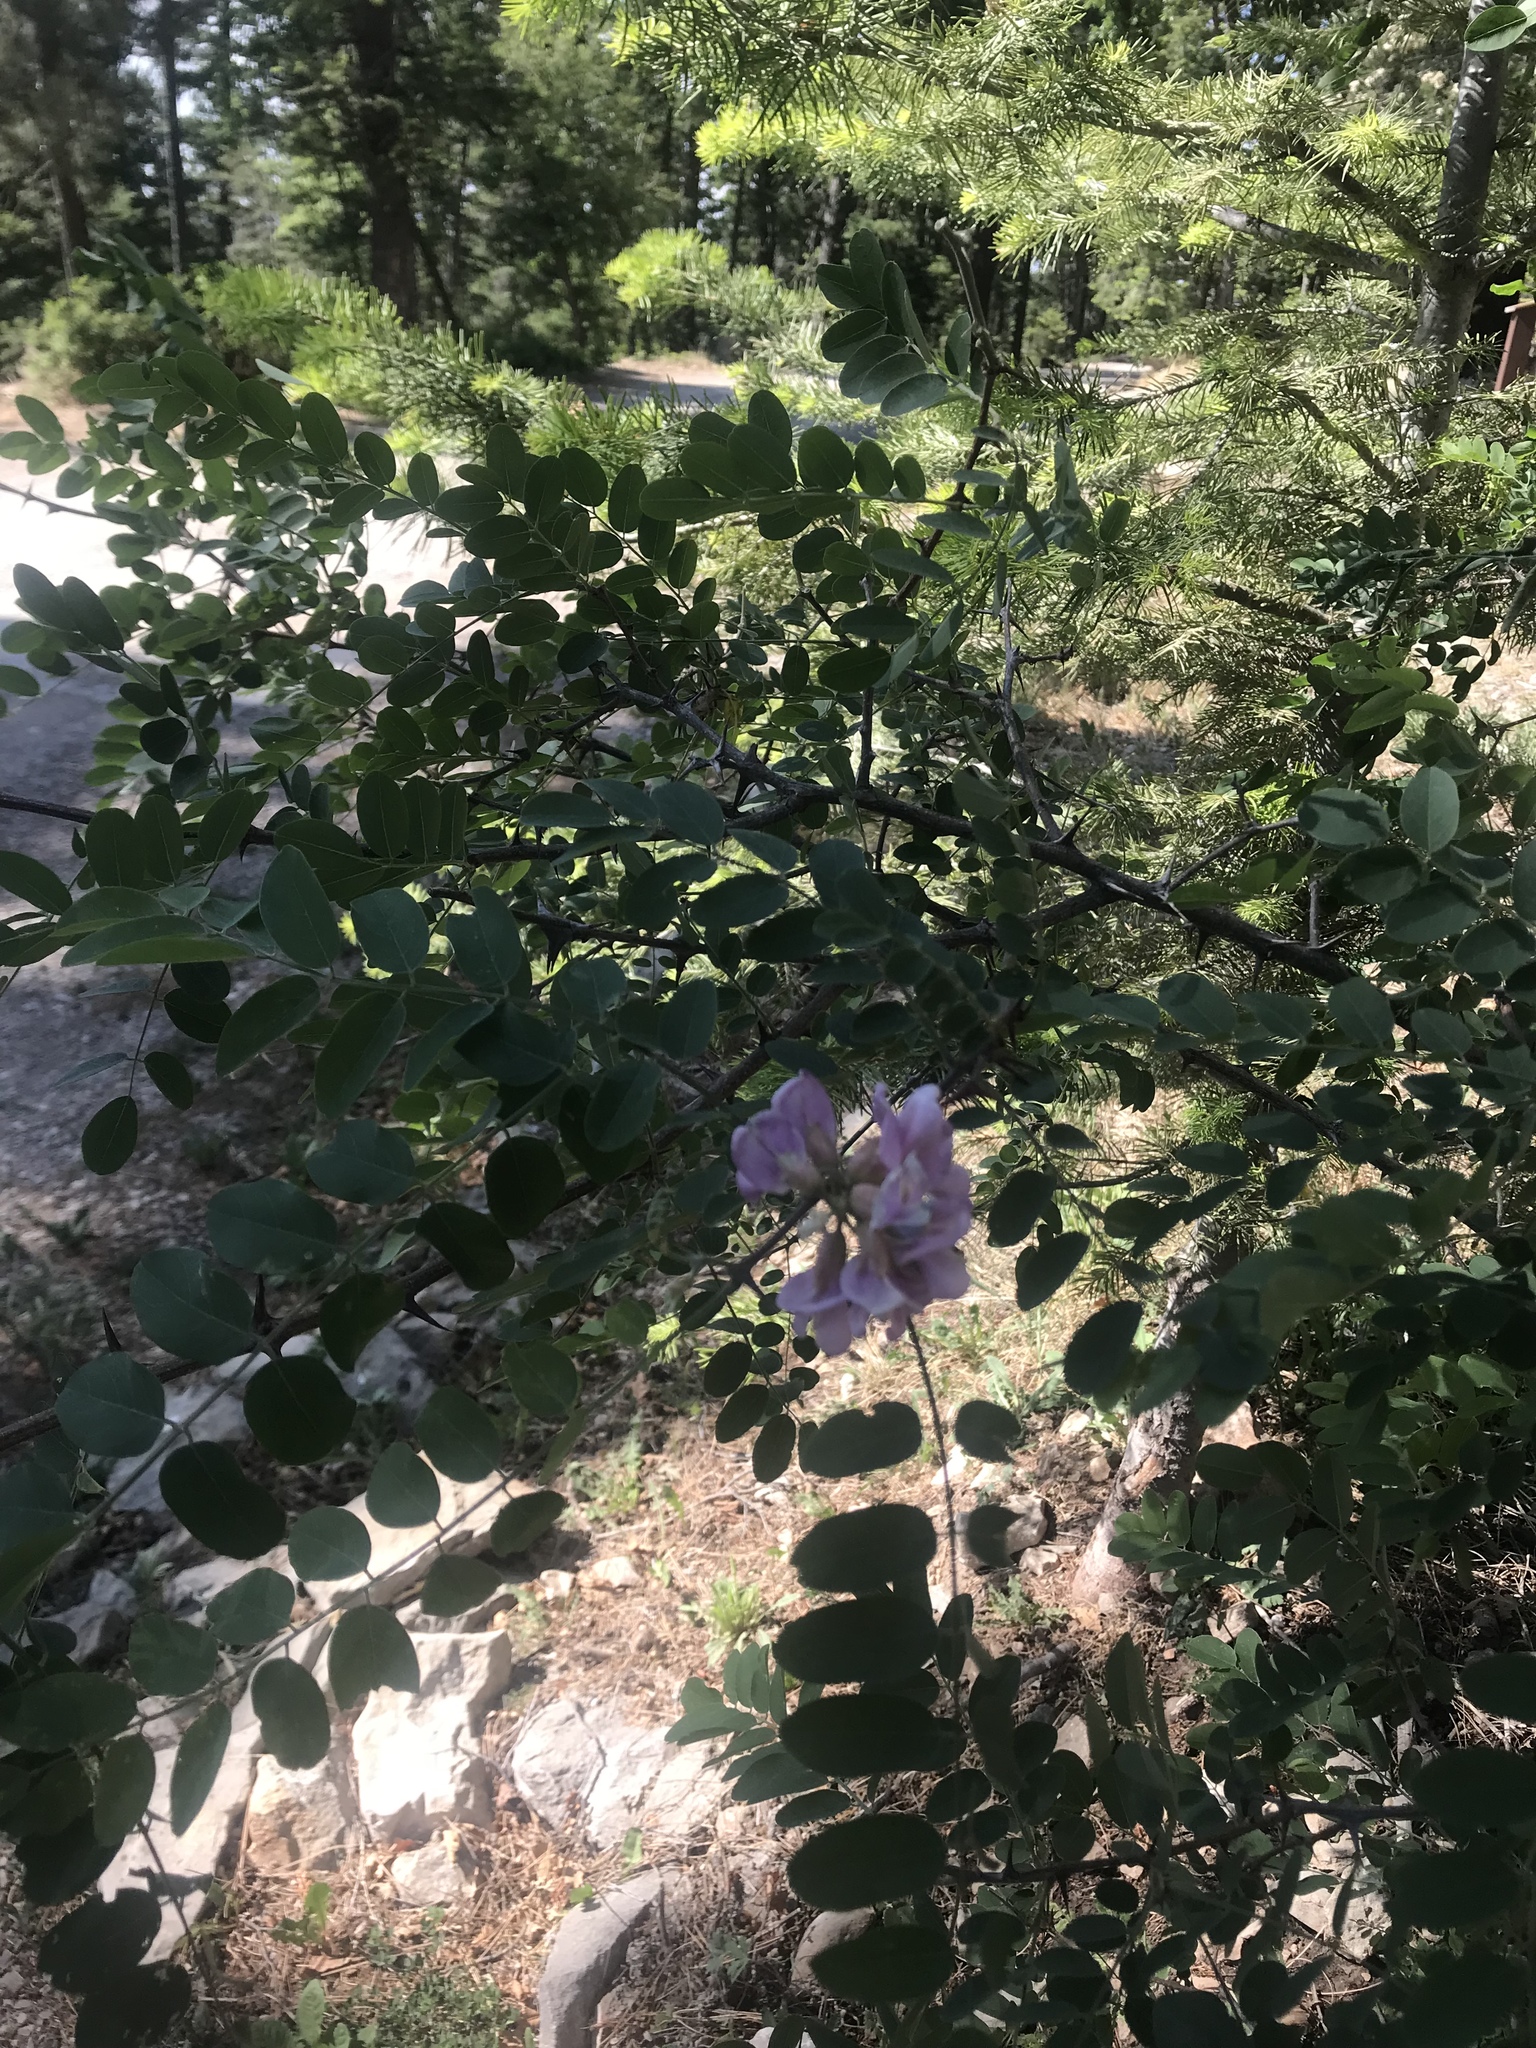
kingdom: Plantae
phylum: Tracheophyta
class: Magnoliopsida
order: Fabales
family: Fabaceae
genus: Robinia
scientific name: Robinia neomexicana
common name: New mexico locust
